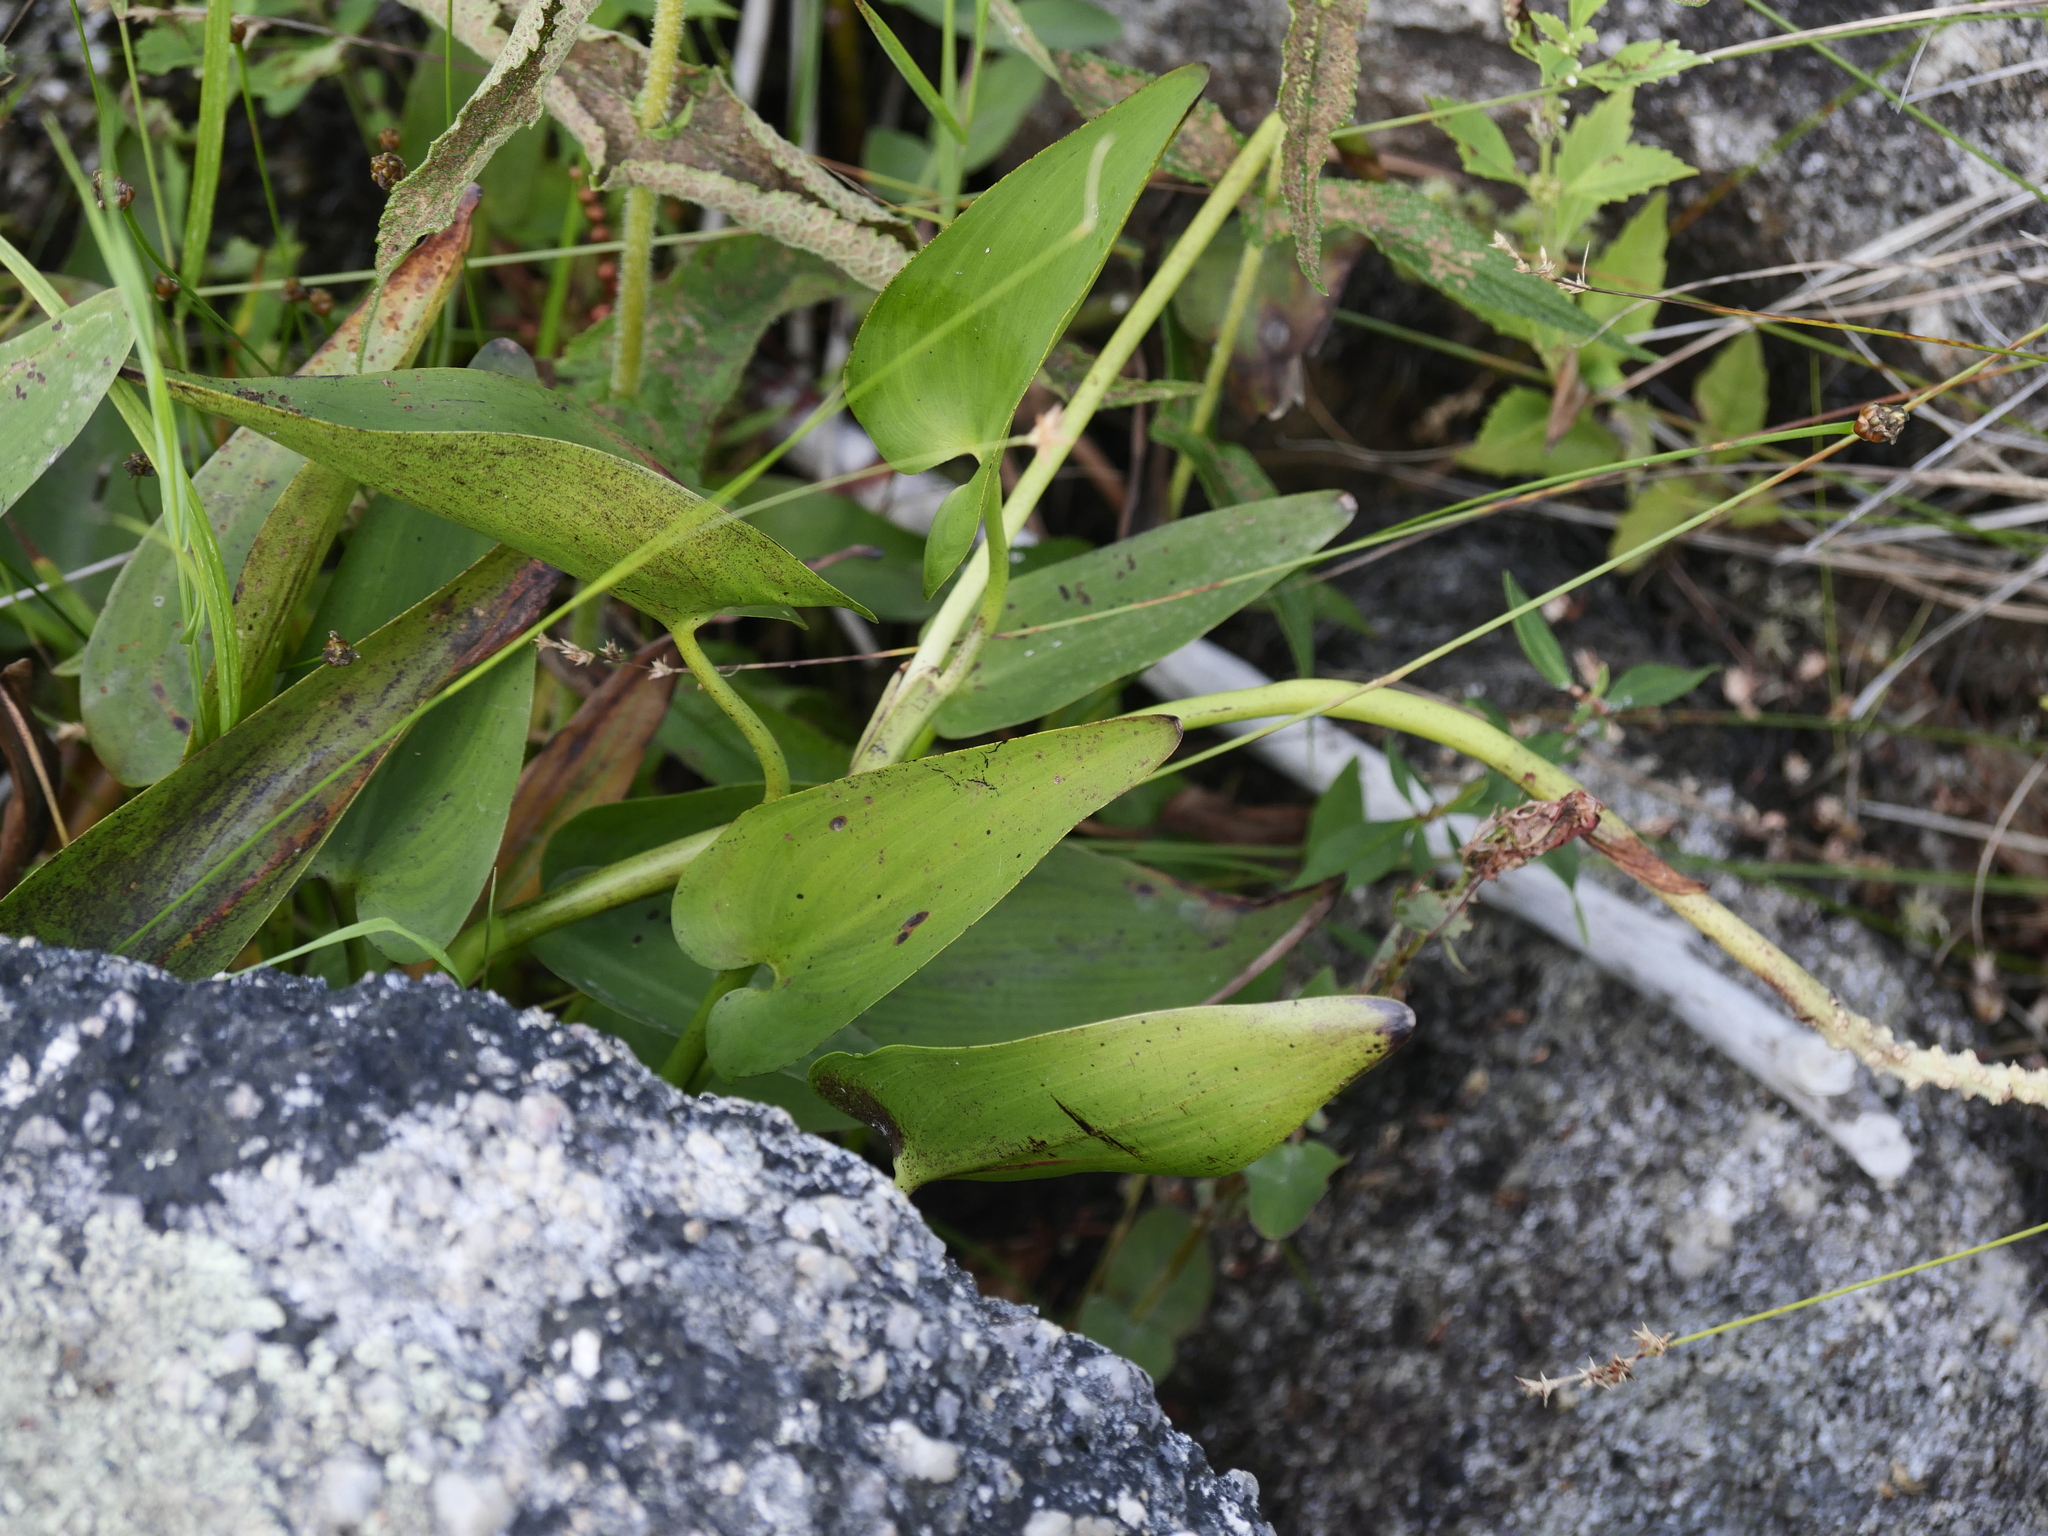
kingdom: Plantae
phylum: Tracheophyta
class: Liliopsida
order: Commelinales
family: Pontederiaceae
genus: Pontederia
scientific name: Pontederia cordata
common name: Pickerelweed
